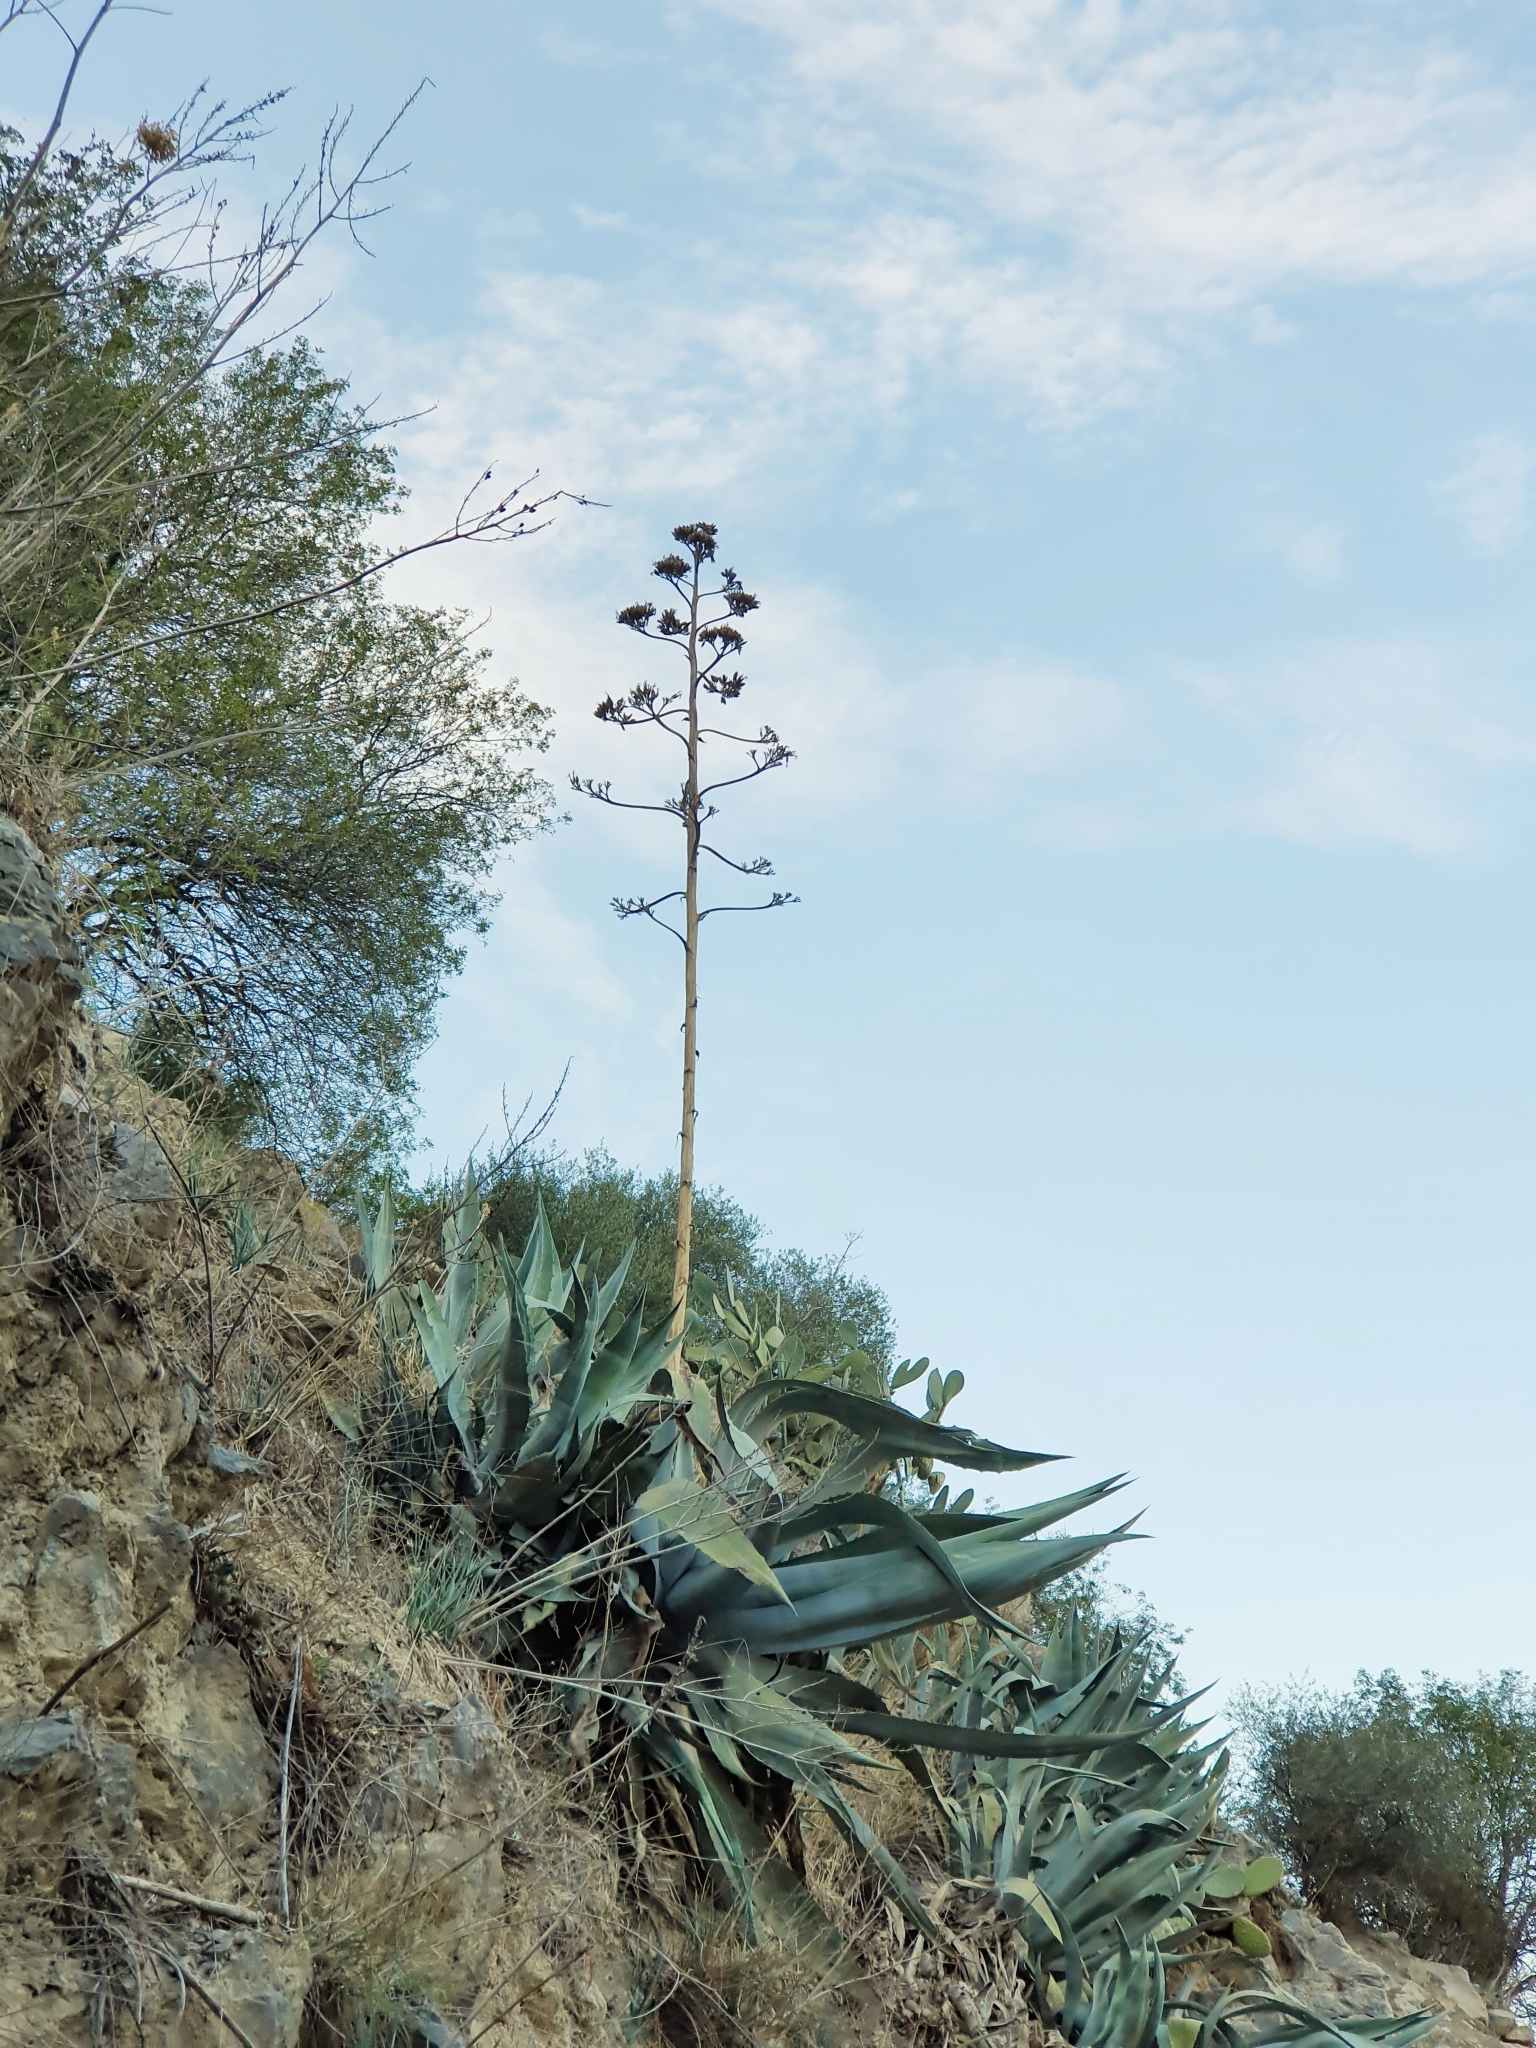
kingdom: Plantae
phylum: Tracheophyta
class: Liliopsida
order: Asparagales
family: Asparagaceae
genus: Agave
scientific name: Agave americana
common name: Centuryplant
